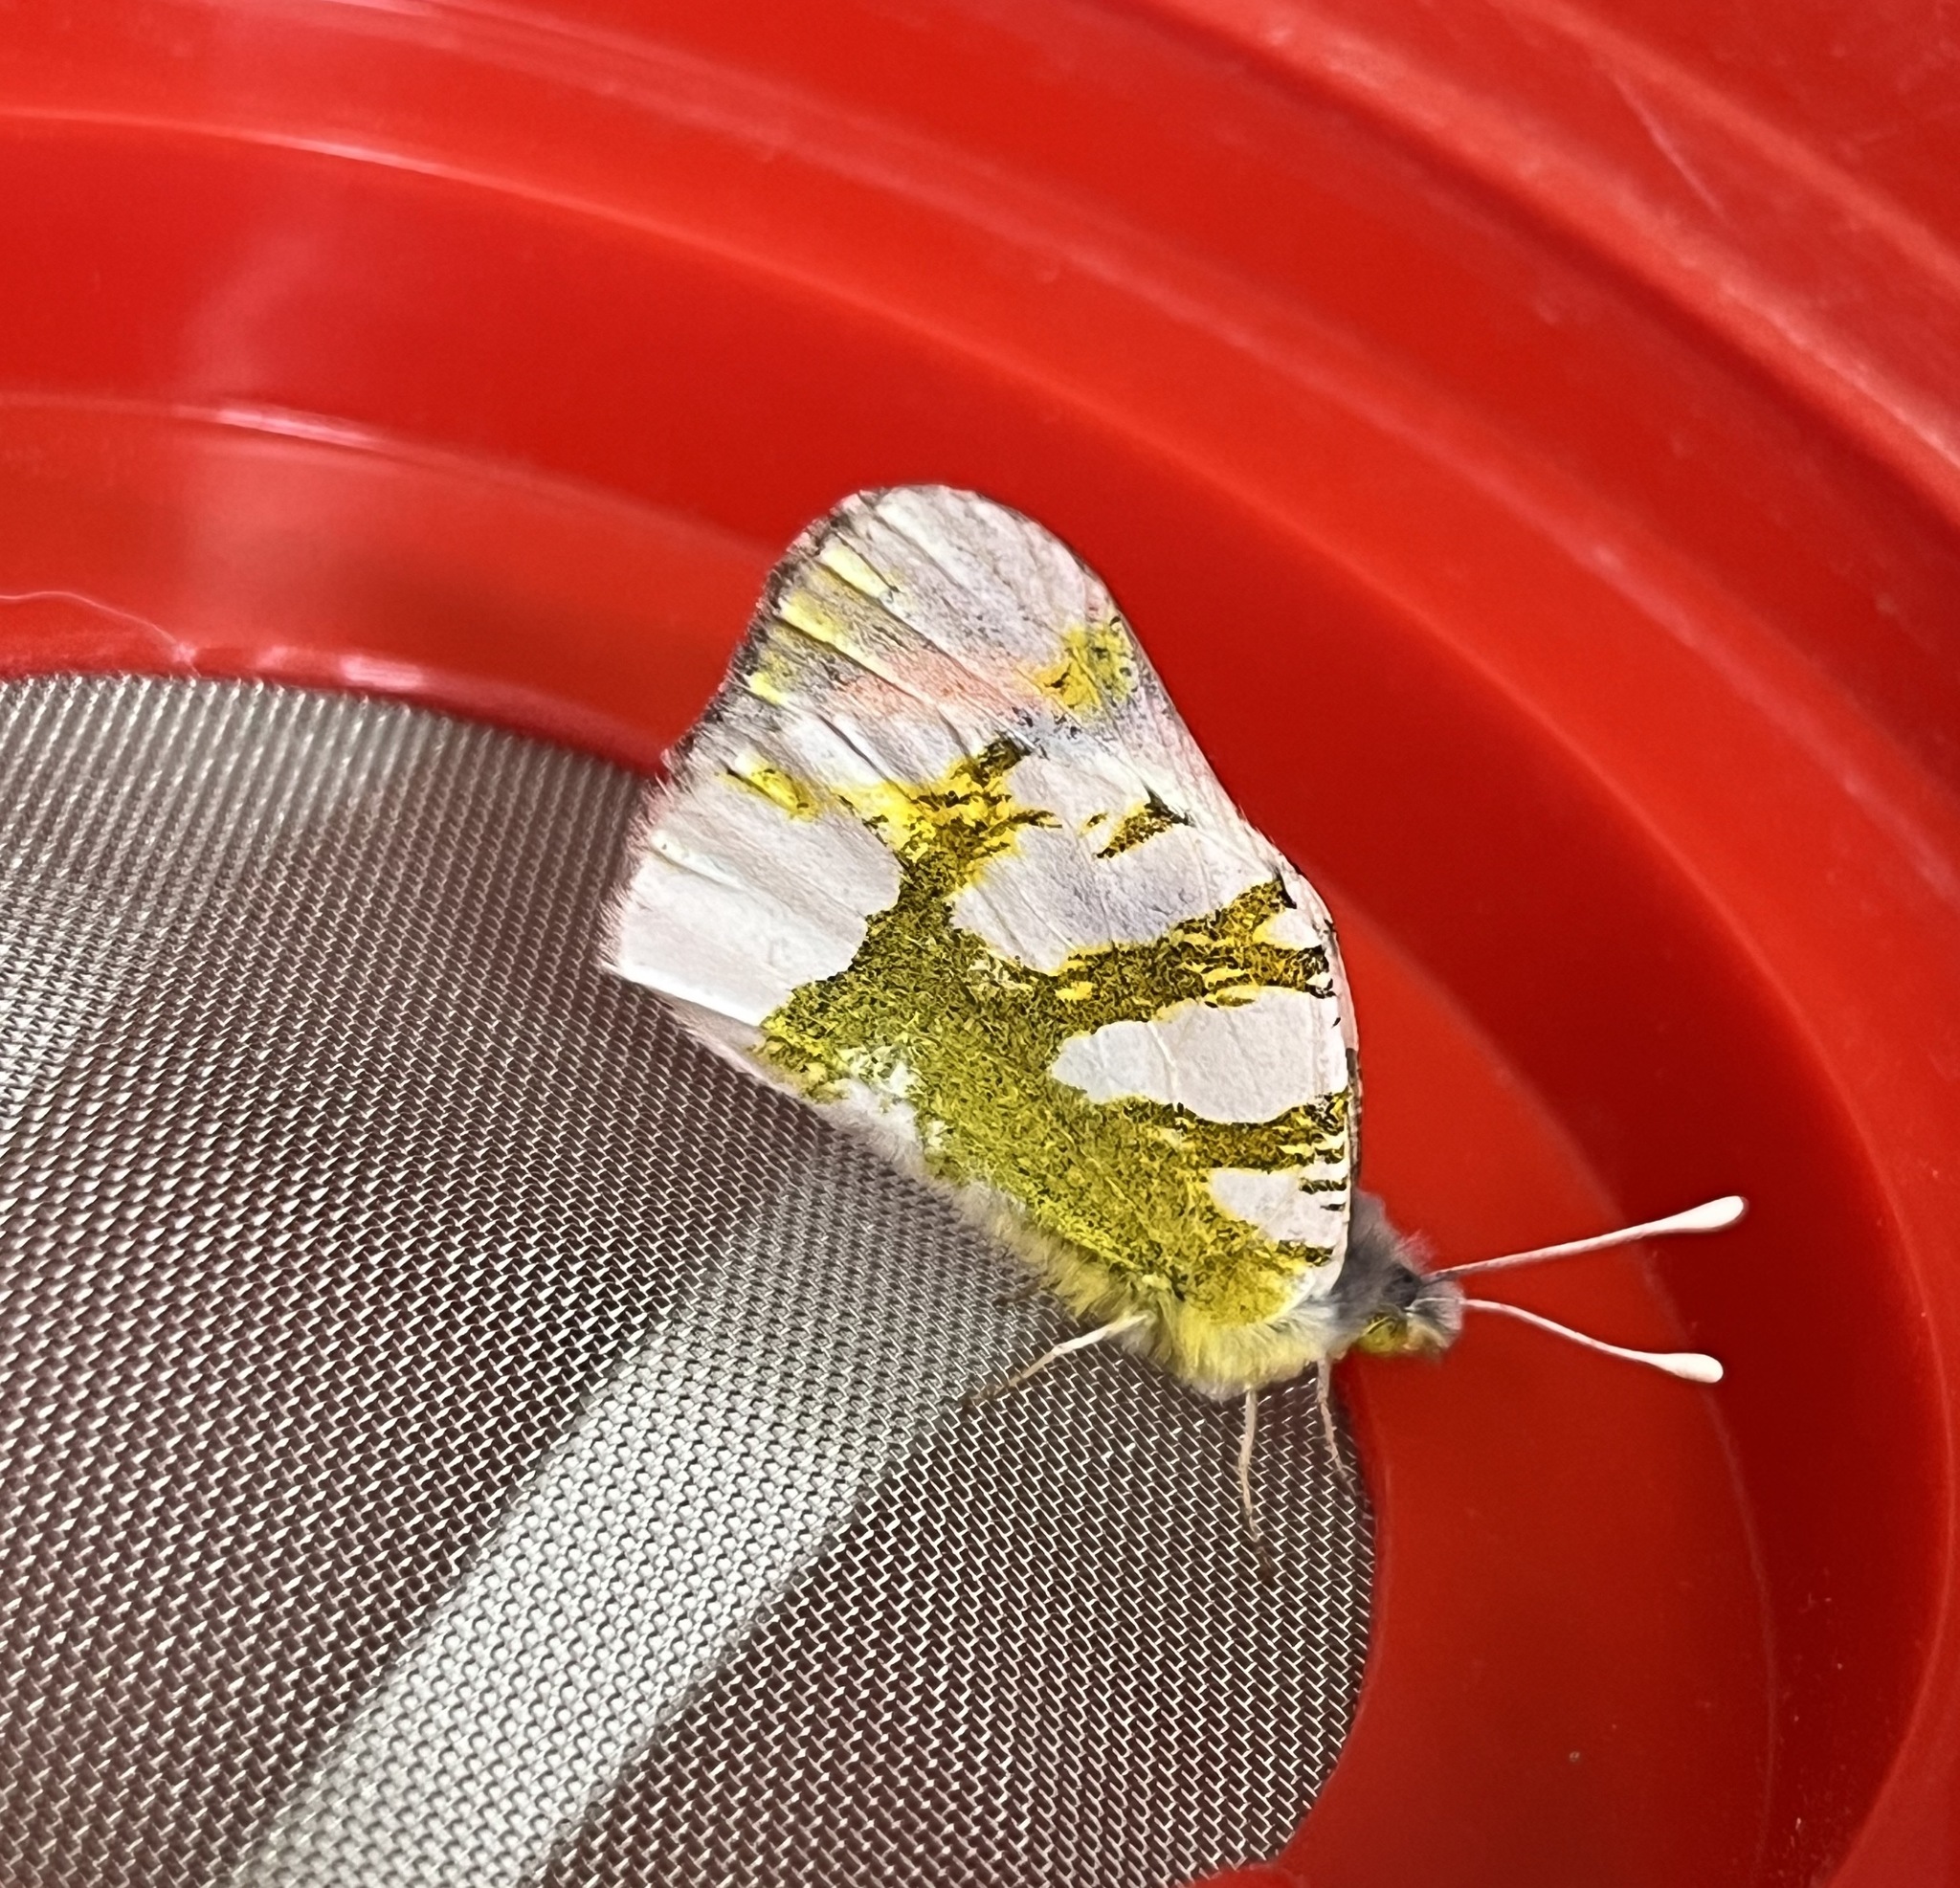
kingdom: Animalia
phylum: Arthropoda
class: Insecta
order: Lepidoptera
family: Pieridae
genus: Zegris
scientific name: Zegris eupheme
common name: Sooty orange tip
